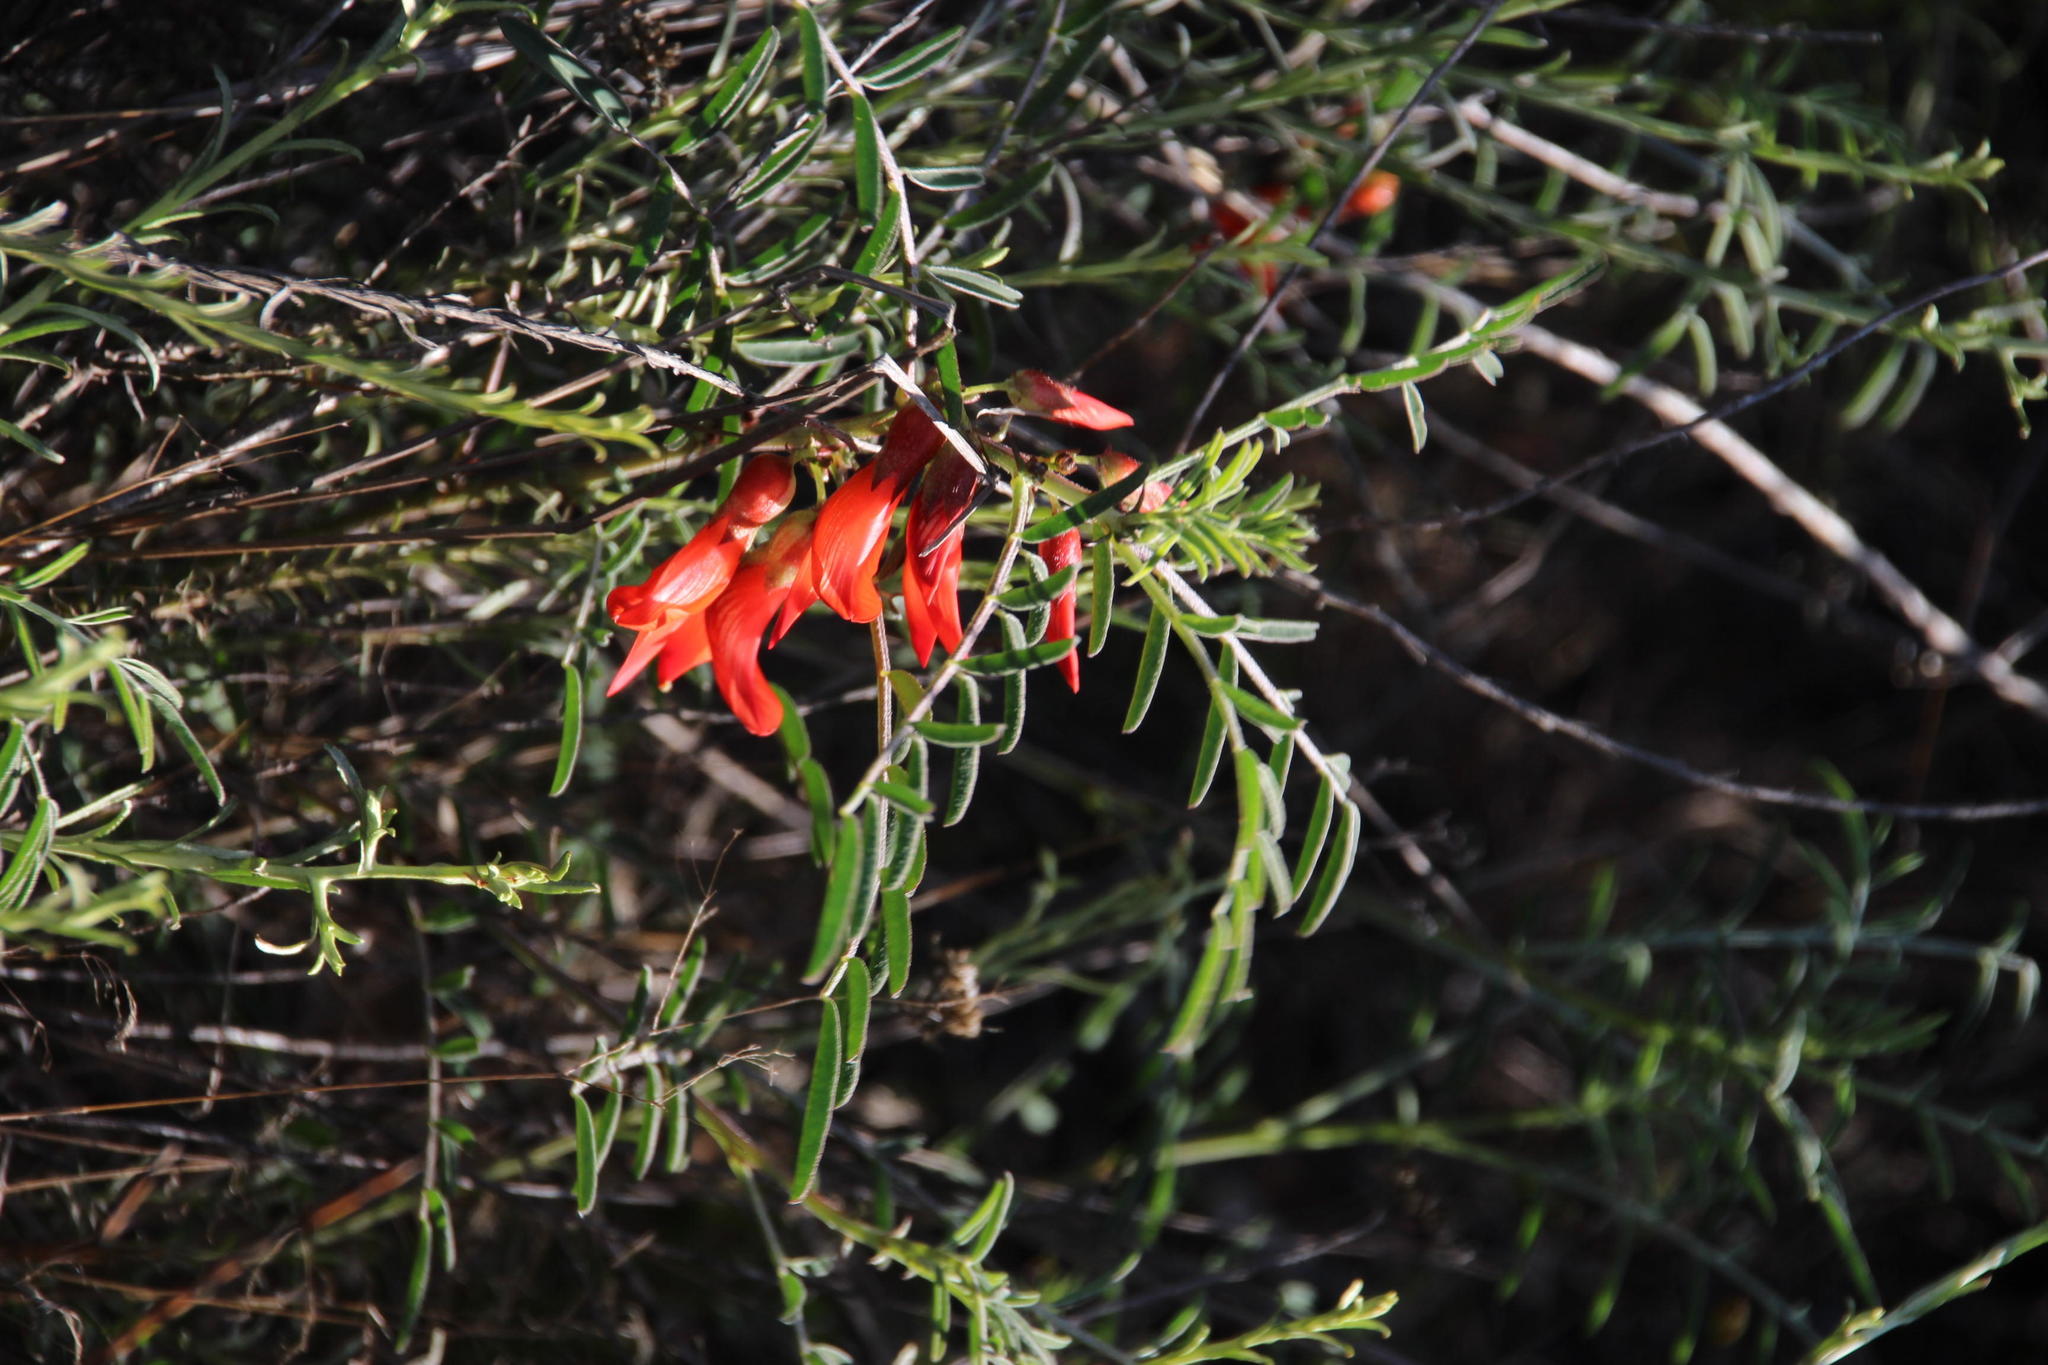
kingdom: Plantae
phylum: Tracheophyta
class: Magnoliopsida
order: Fabales
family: Fabaceae
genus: Lessertia
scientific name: Lessertia frutescens
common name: Balloon-pea
